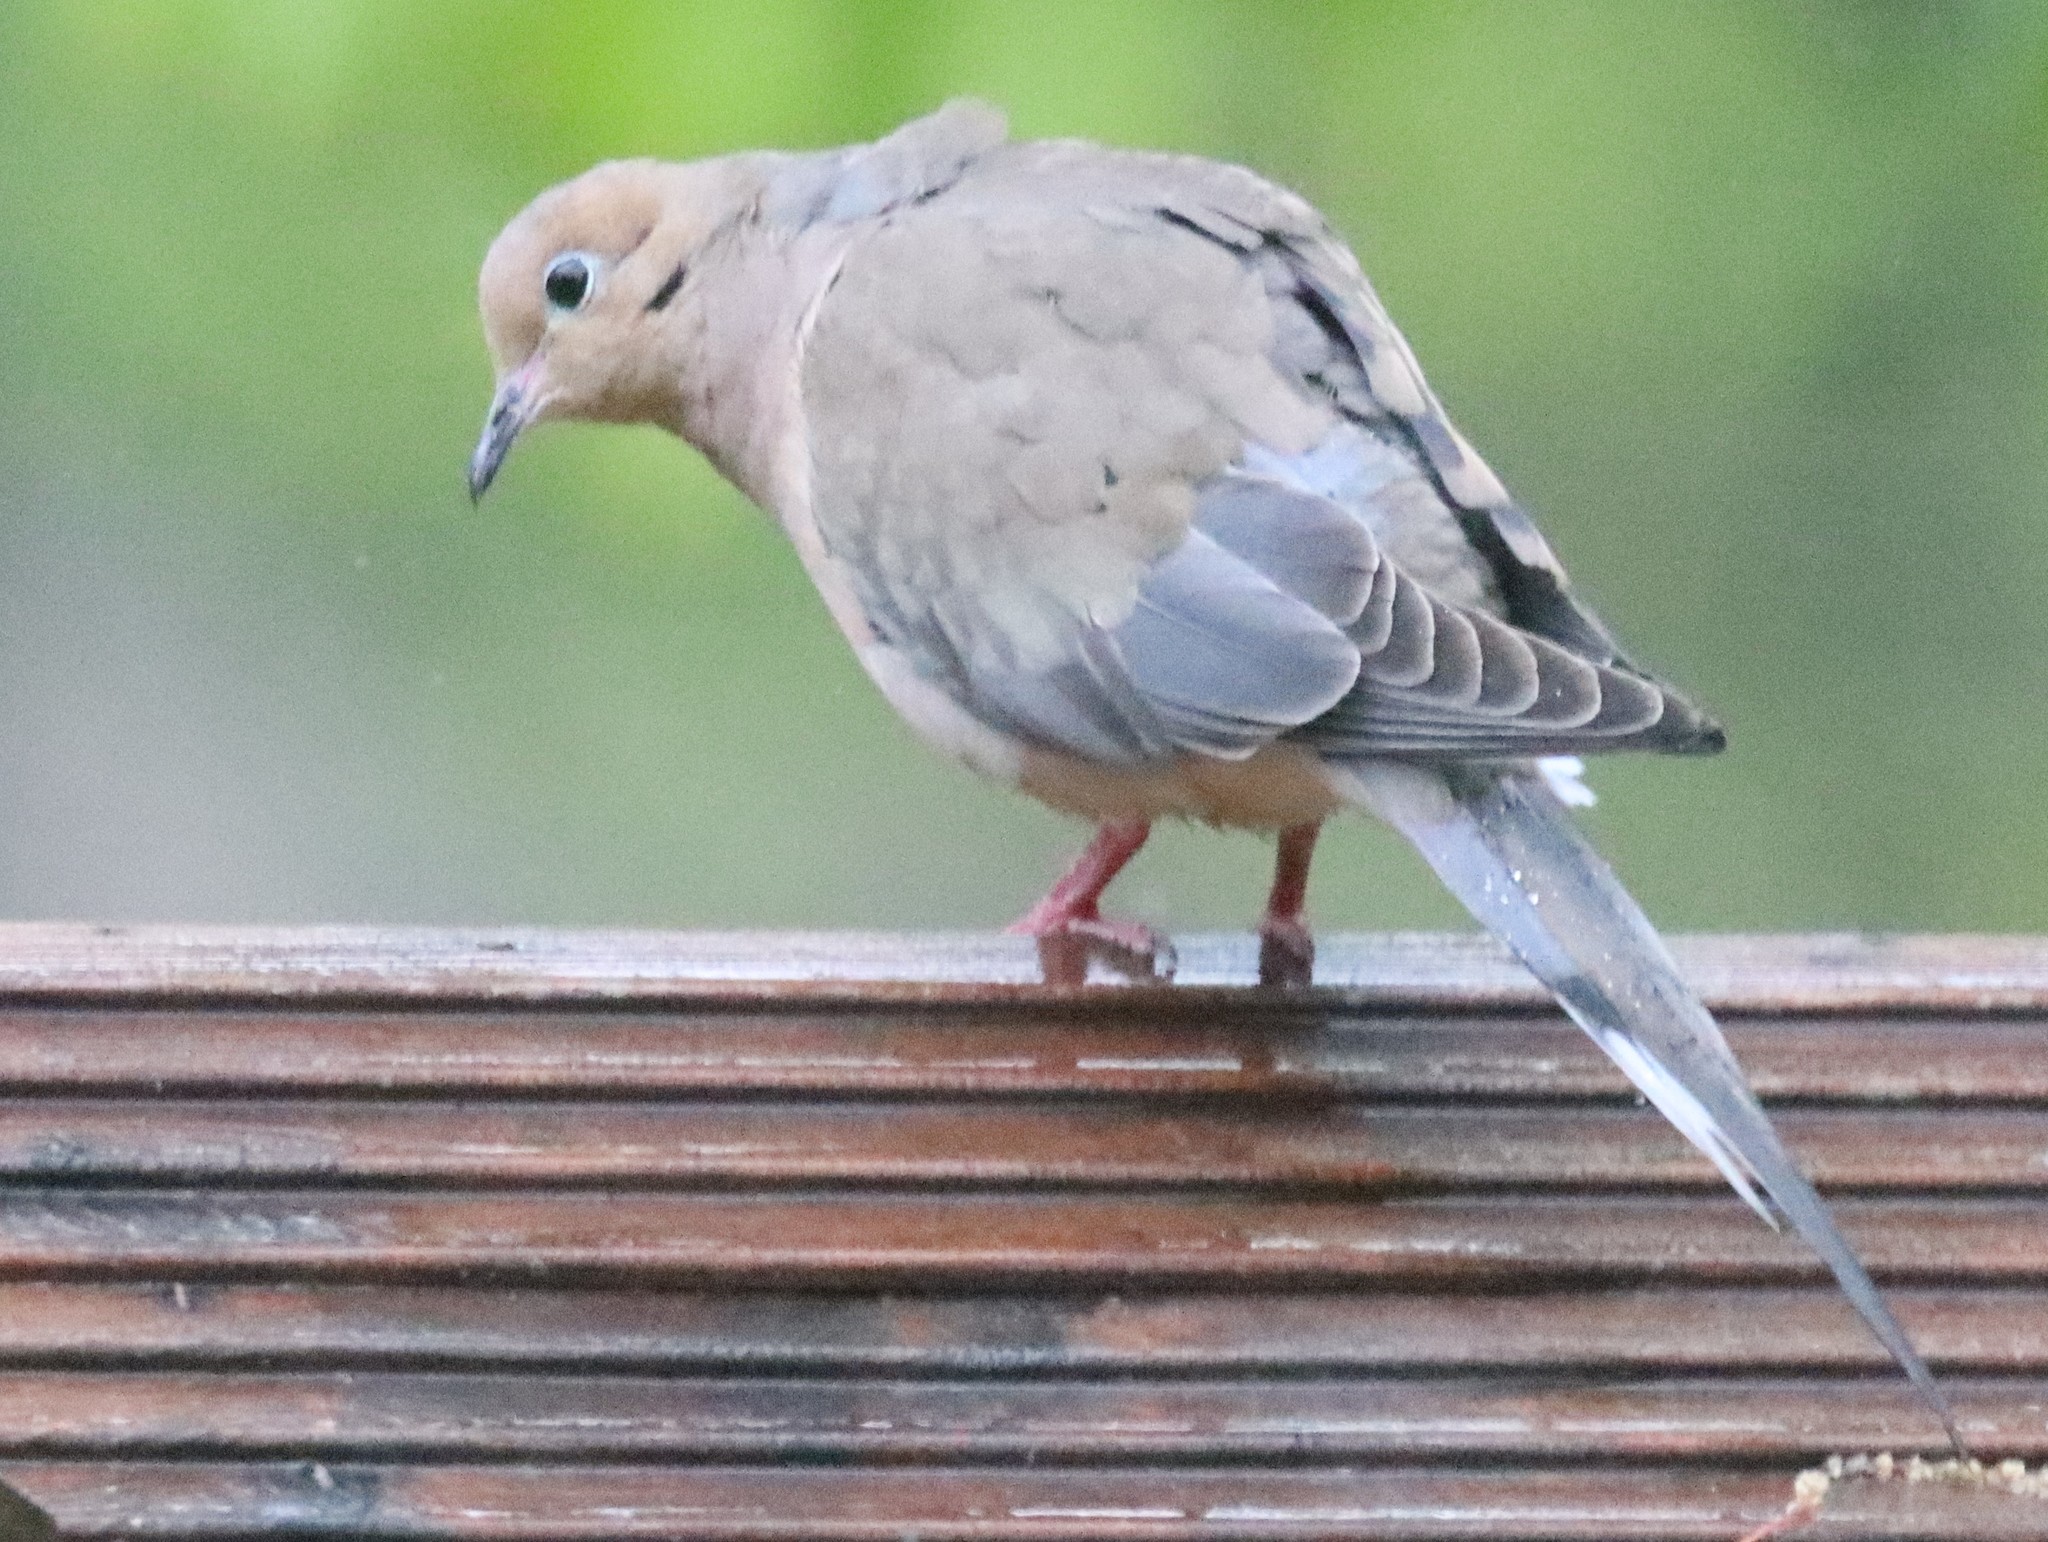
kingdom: Animalia
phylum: Chordata
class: Aves
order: Columbiformes
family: Columbidae
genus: Zenaida
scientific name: Zenaida macroura
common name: Mourning dove
